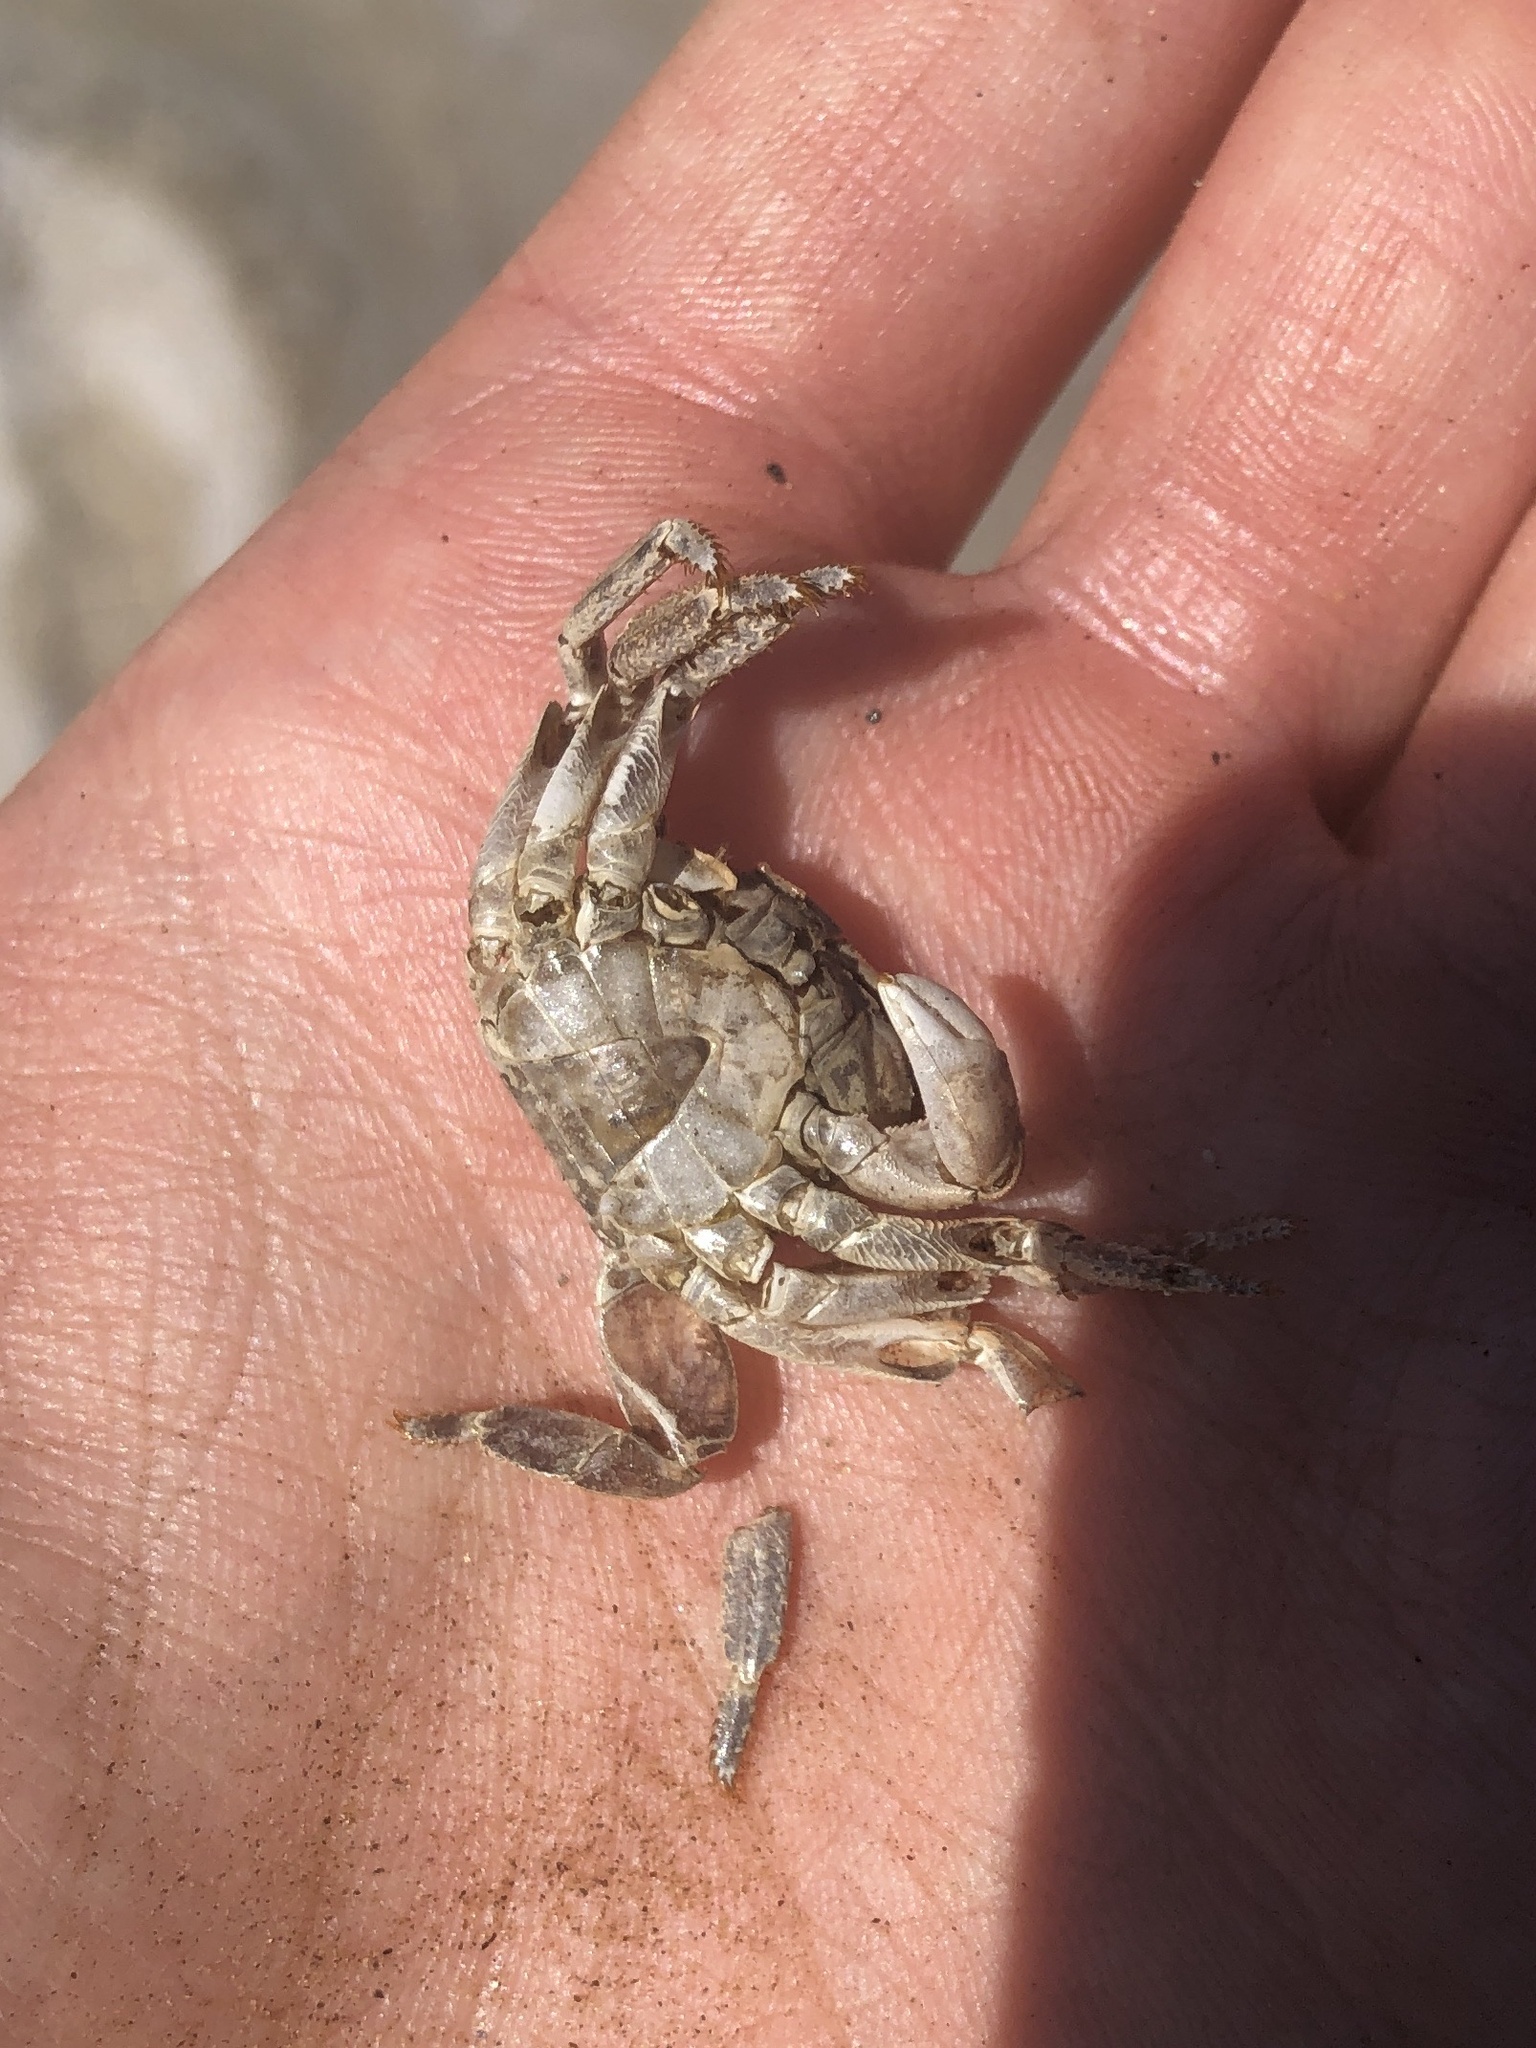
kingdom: Animalia
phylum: Arthropoda
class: Malacostraca
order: Decapoda
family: Grapsidae
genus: Pachygrapsus
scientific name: Pachygrapsus crassipes
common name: Striped shore crab
